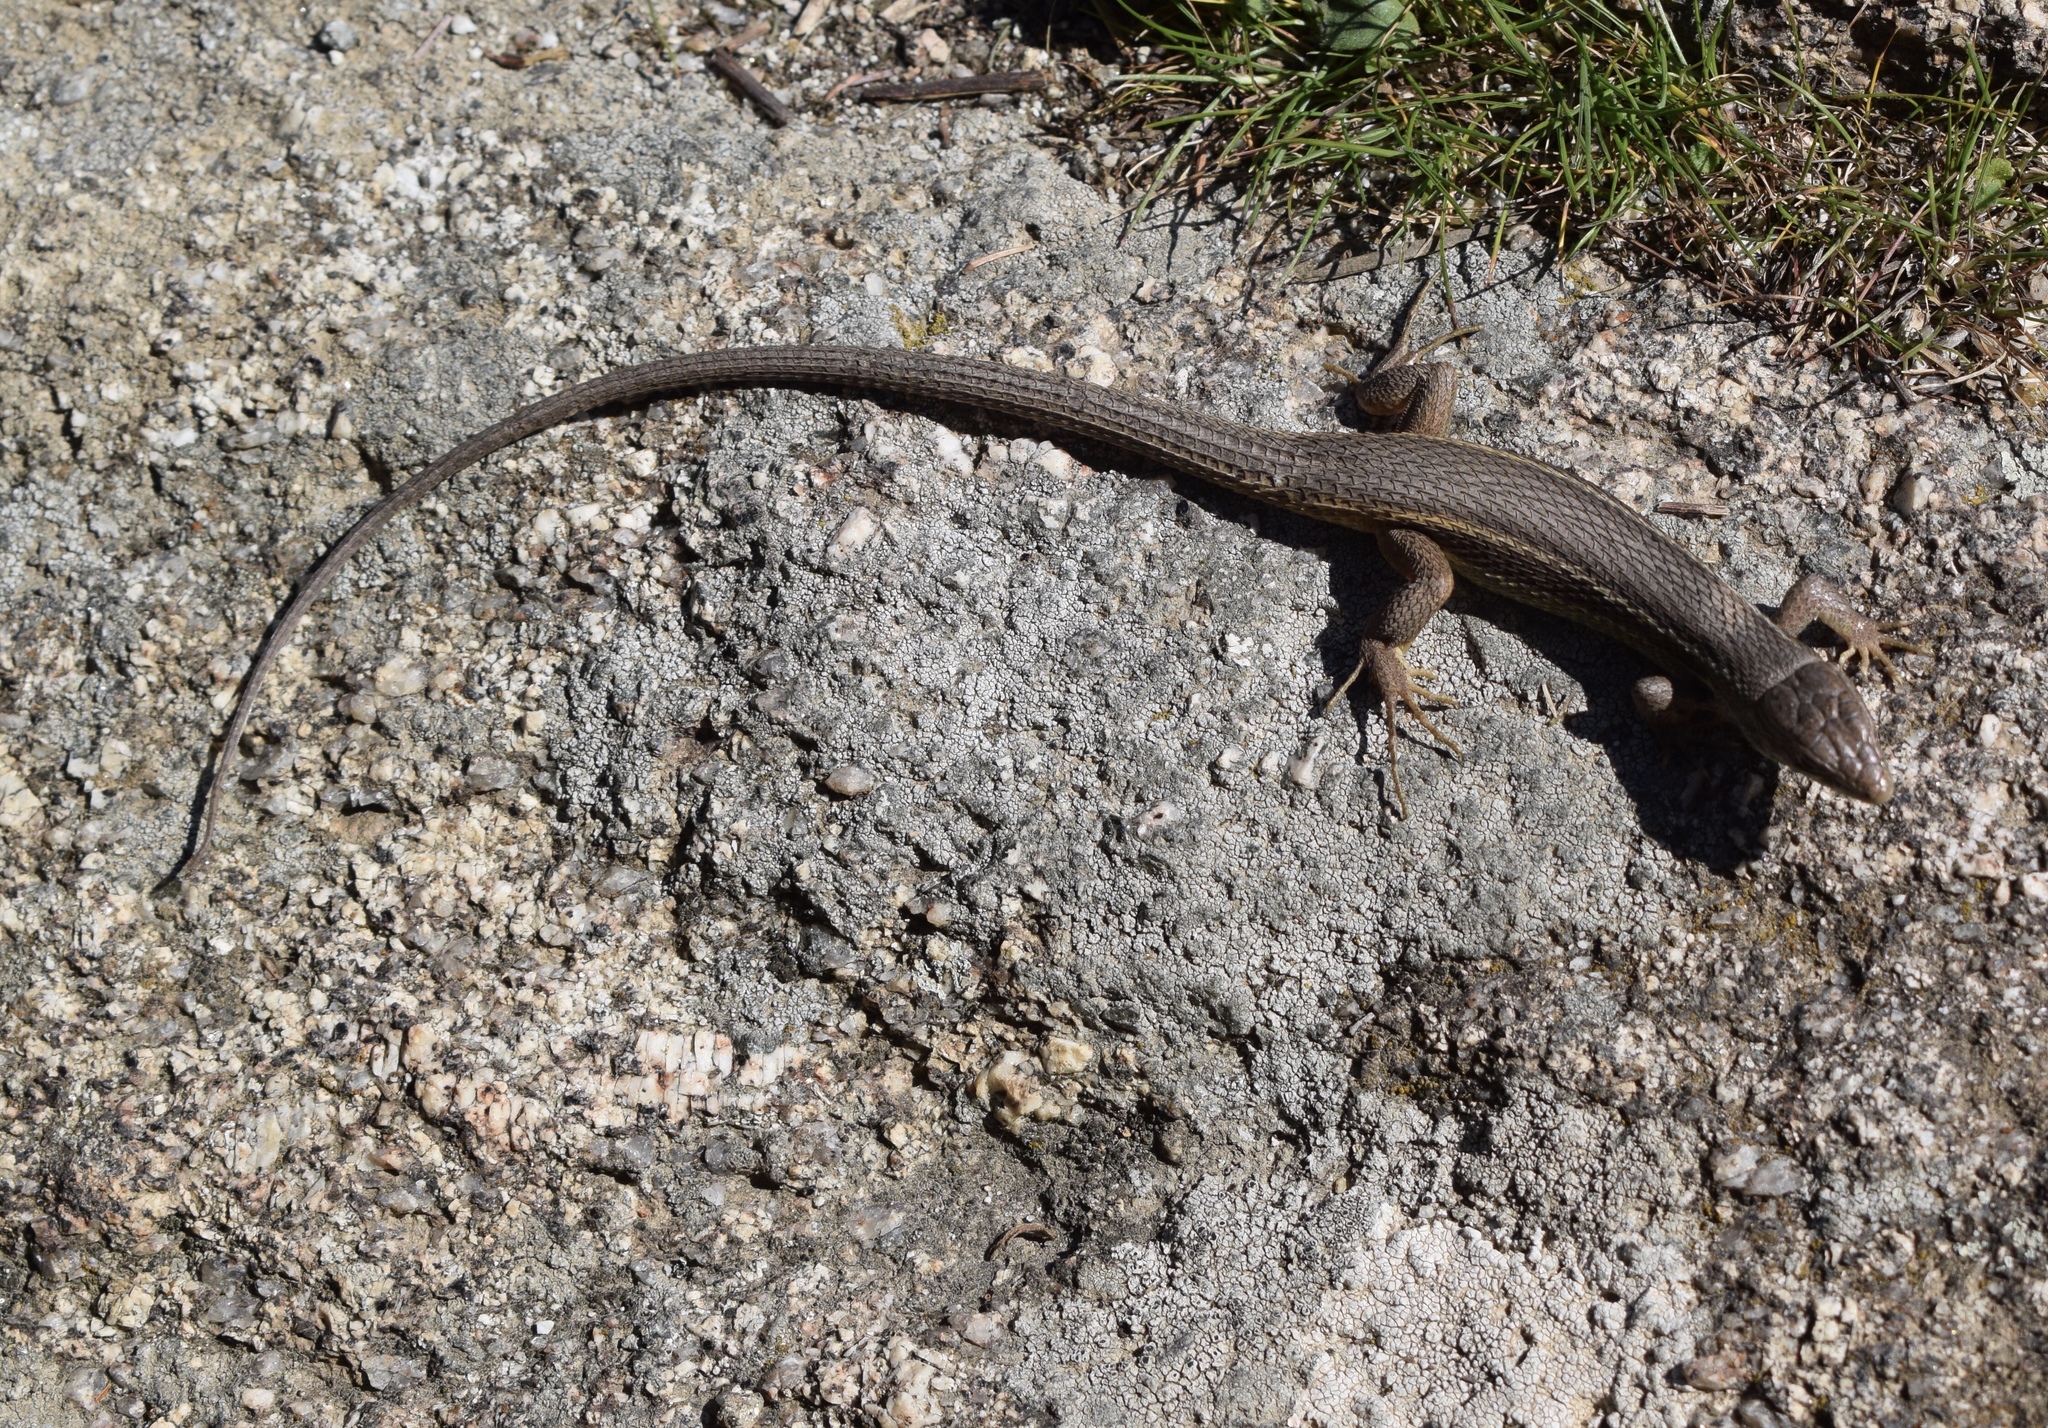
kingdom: Animalia
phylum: Chordata
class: Squamata
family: Lacertidae
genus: Psammodromus
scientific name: Psammodromus algirus
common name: Algerian psammodromus
